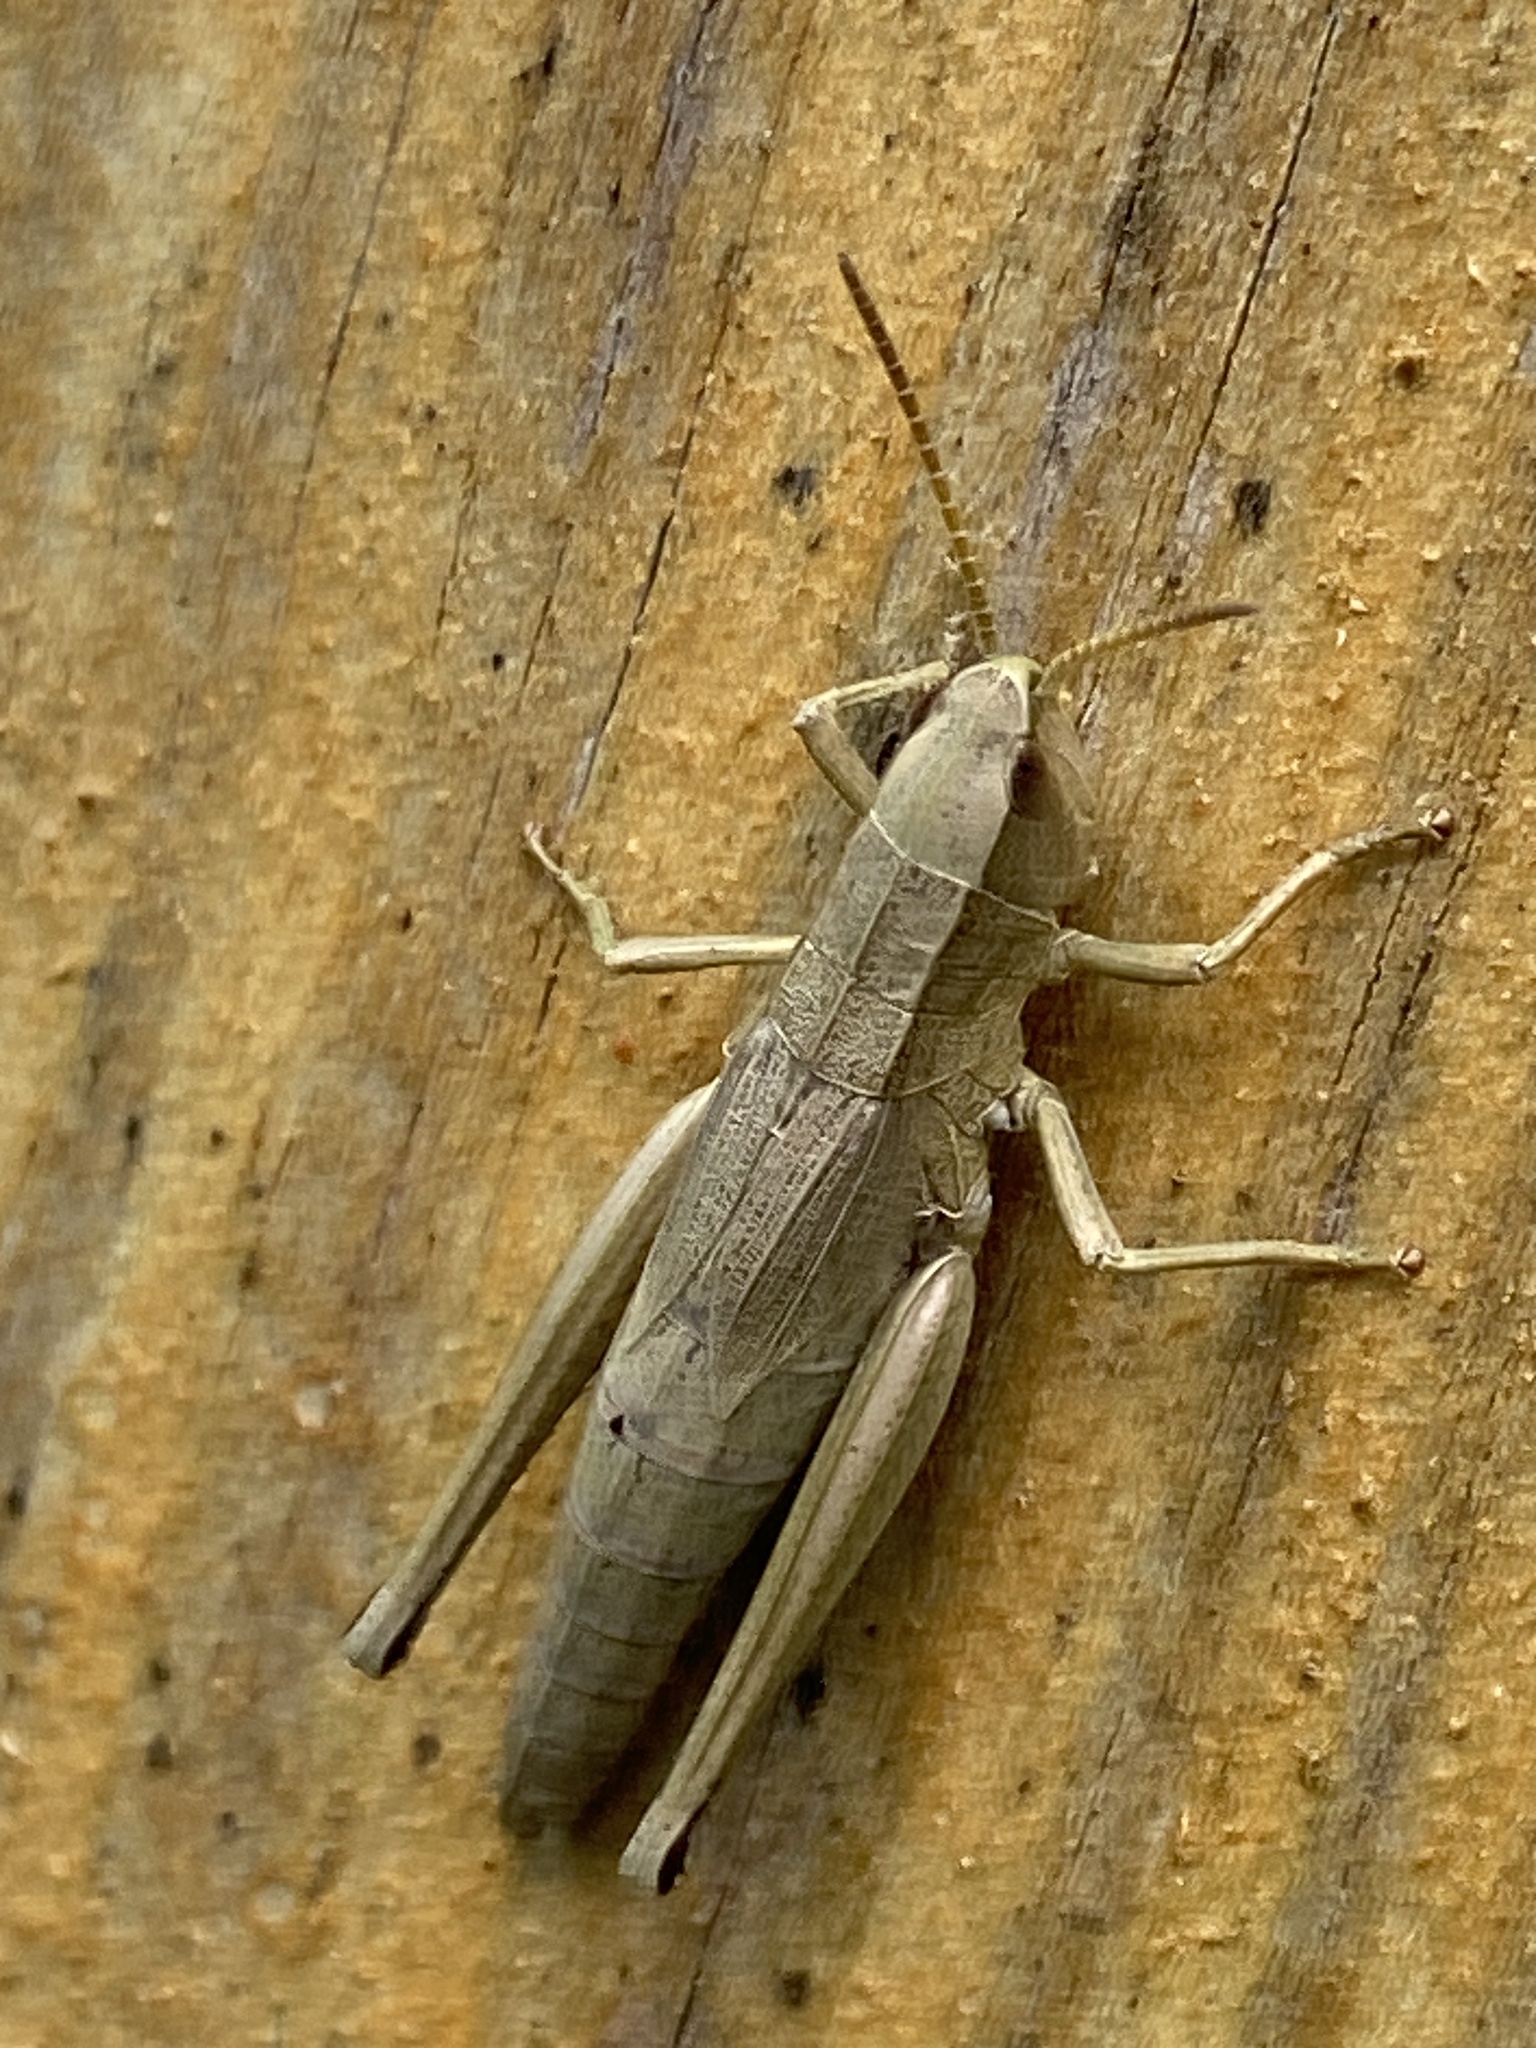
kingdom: Animalia
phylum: Arthropoda
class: Insecta
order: Orthoptera
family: Acrididae
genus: Chrysochraon
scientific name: Chrysochraon dispar
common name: Large gold grasshopper
